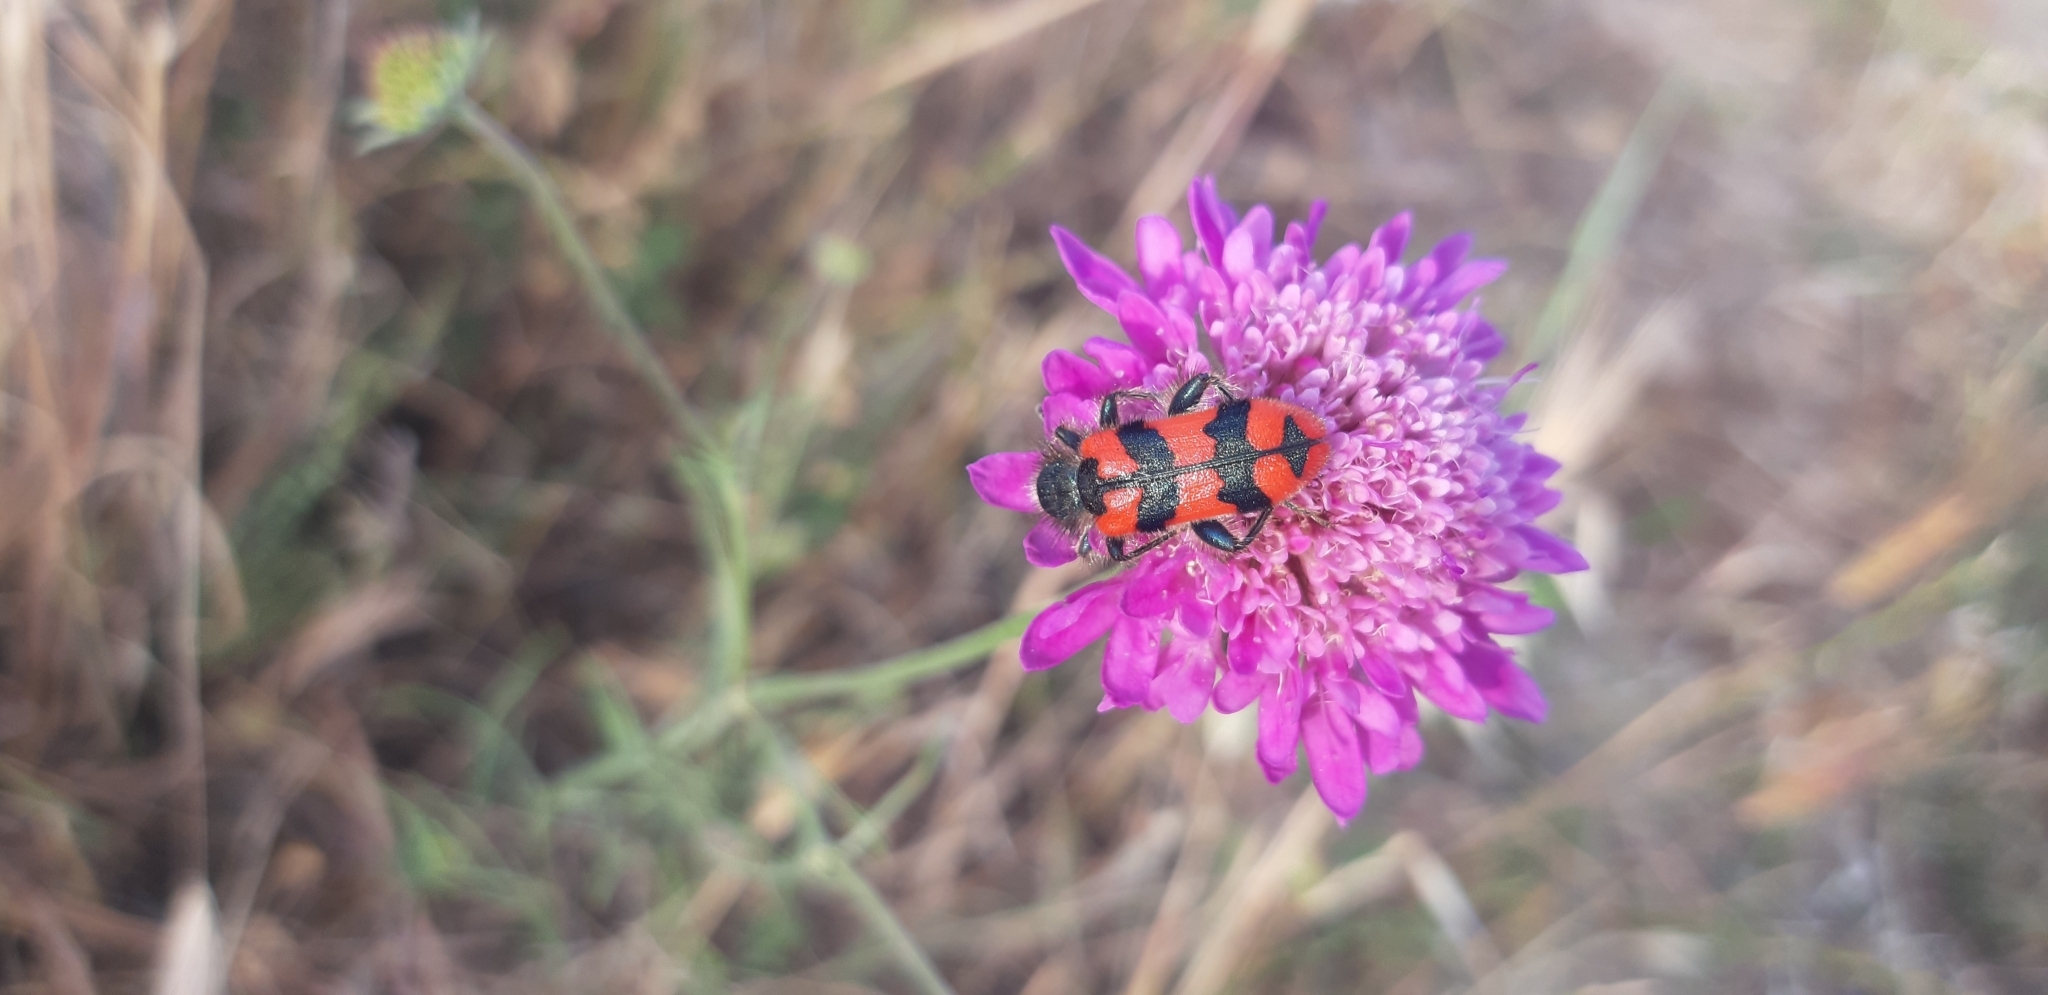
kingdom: Animalia
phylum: Arthropoda
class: Insecta
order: Coleoptera
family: Cleridae
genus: Trichodes
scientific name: Trichodes alvearius
